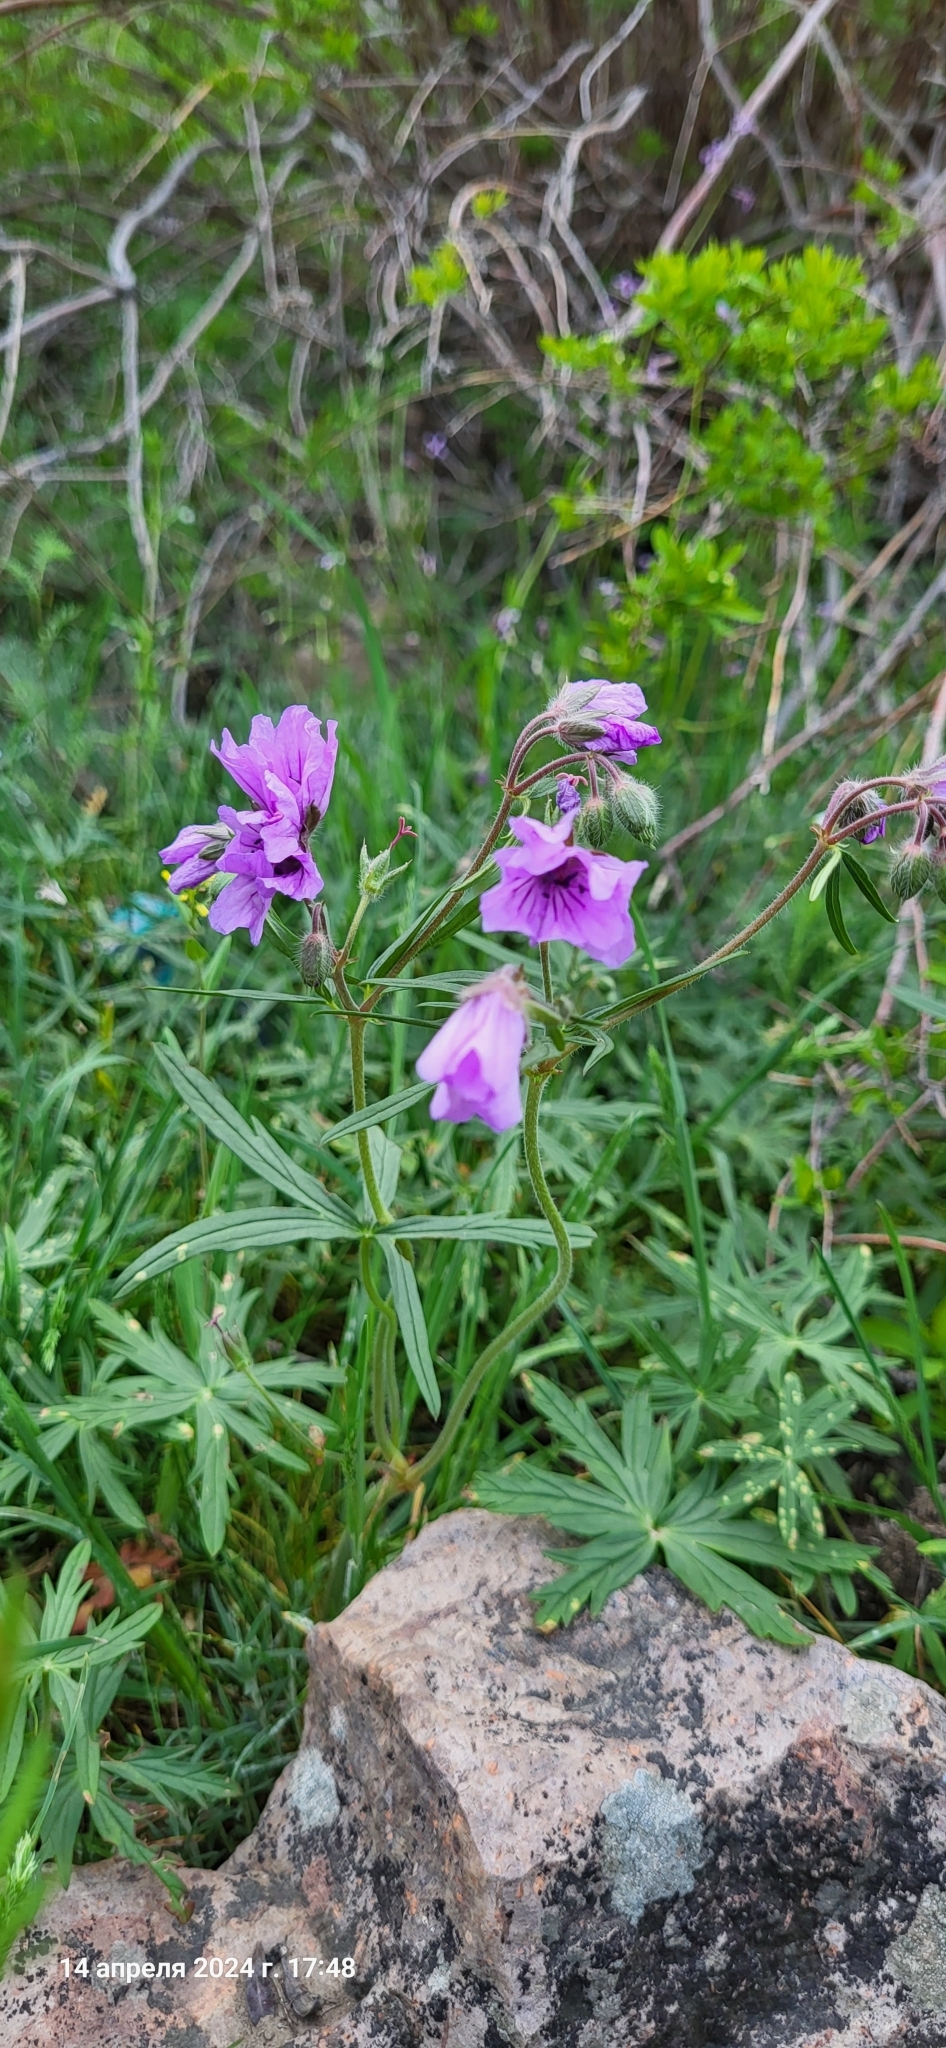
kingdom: Plantae
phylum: Tracheophyta
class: Magnoliopsida
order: Geraniales
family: Geraniaceae
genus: Geranium
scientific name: Geranium linearilobum
